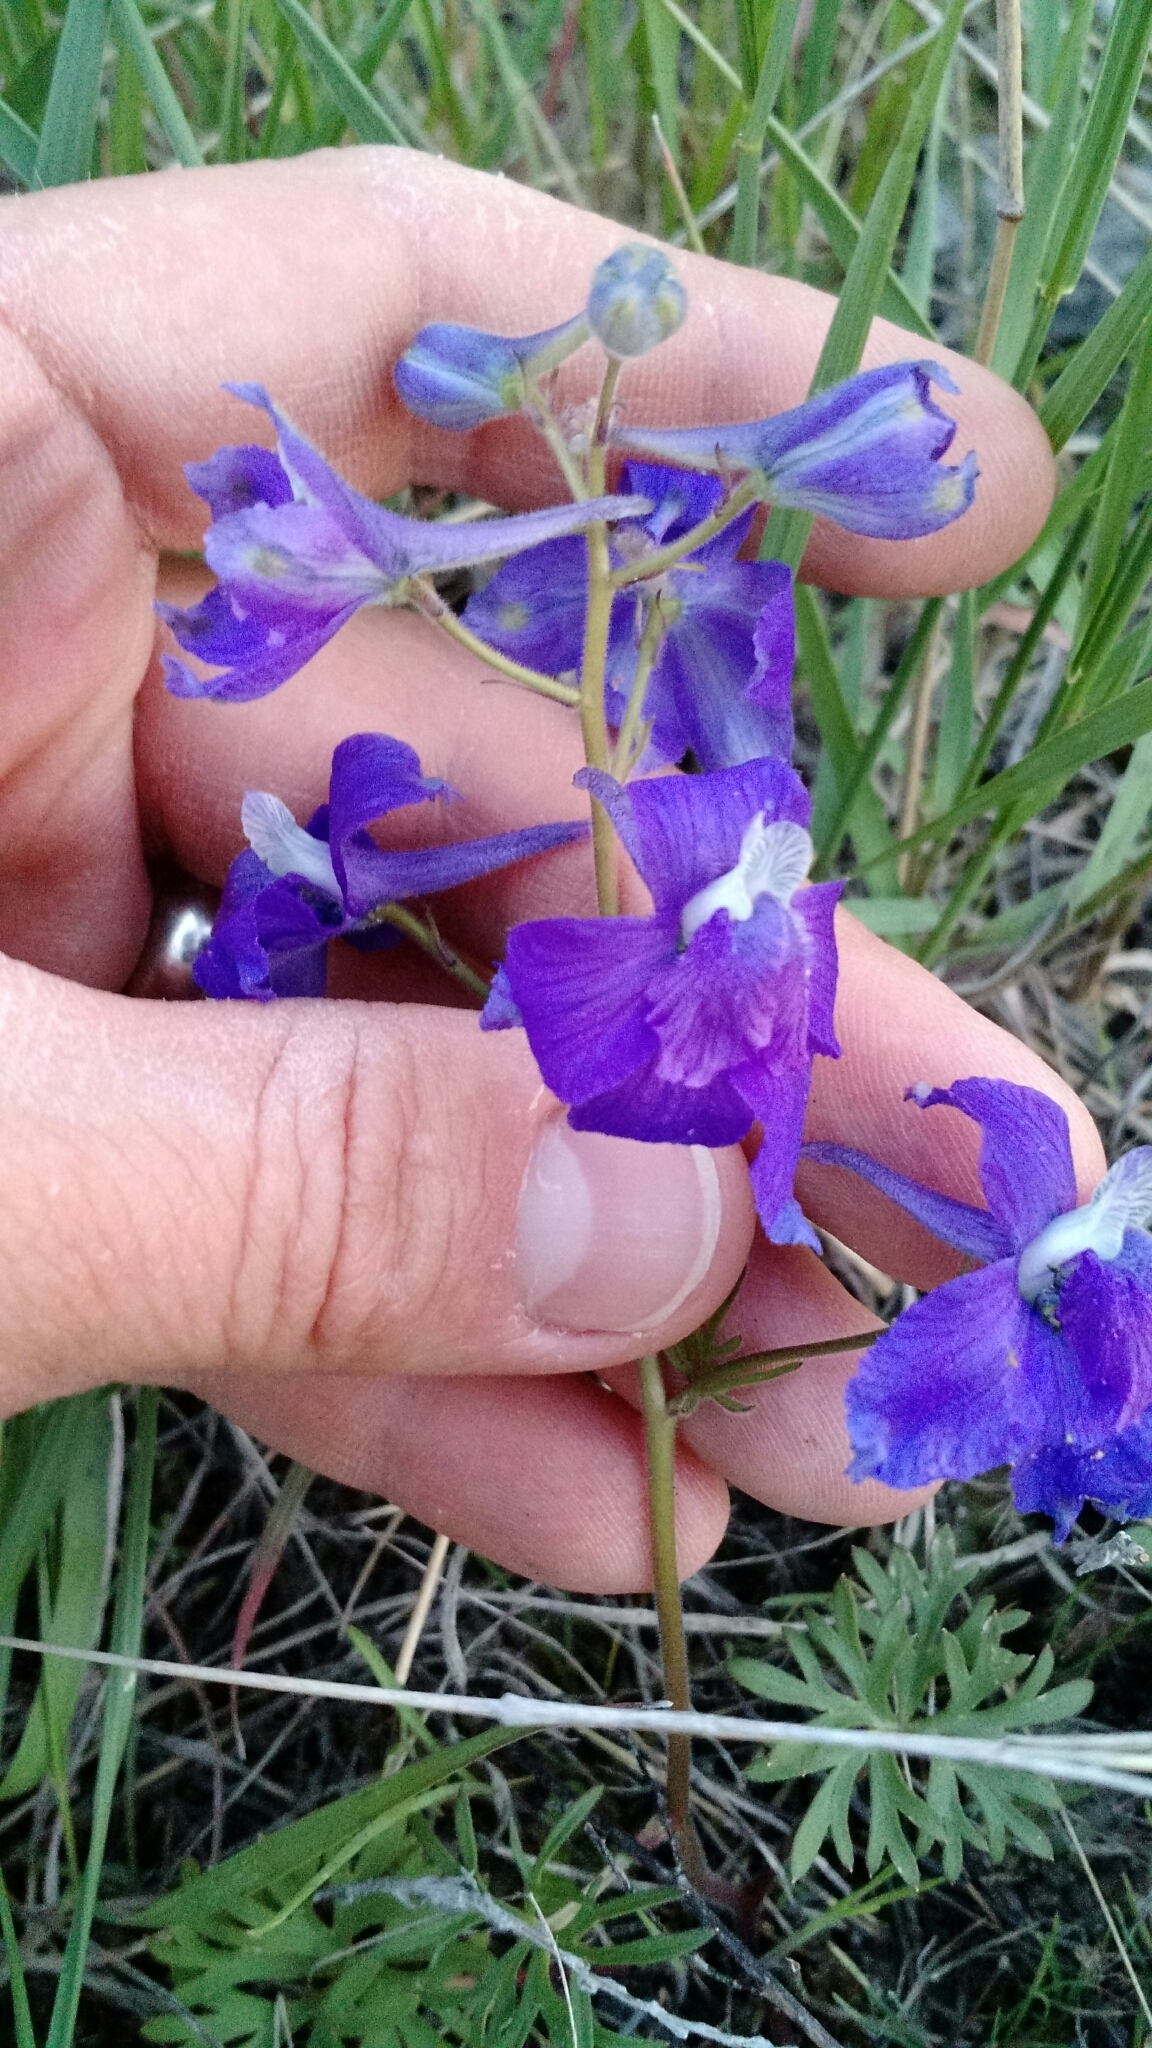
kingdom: Plantae
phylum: Tracheophyta
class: Magnoliopsida
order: Ranunculales
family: Ranunculaceae
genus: Delphinium
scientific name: Delphinium bicolor
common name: Low larkspur
